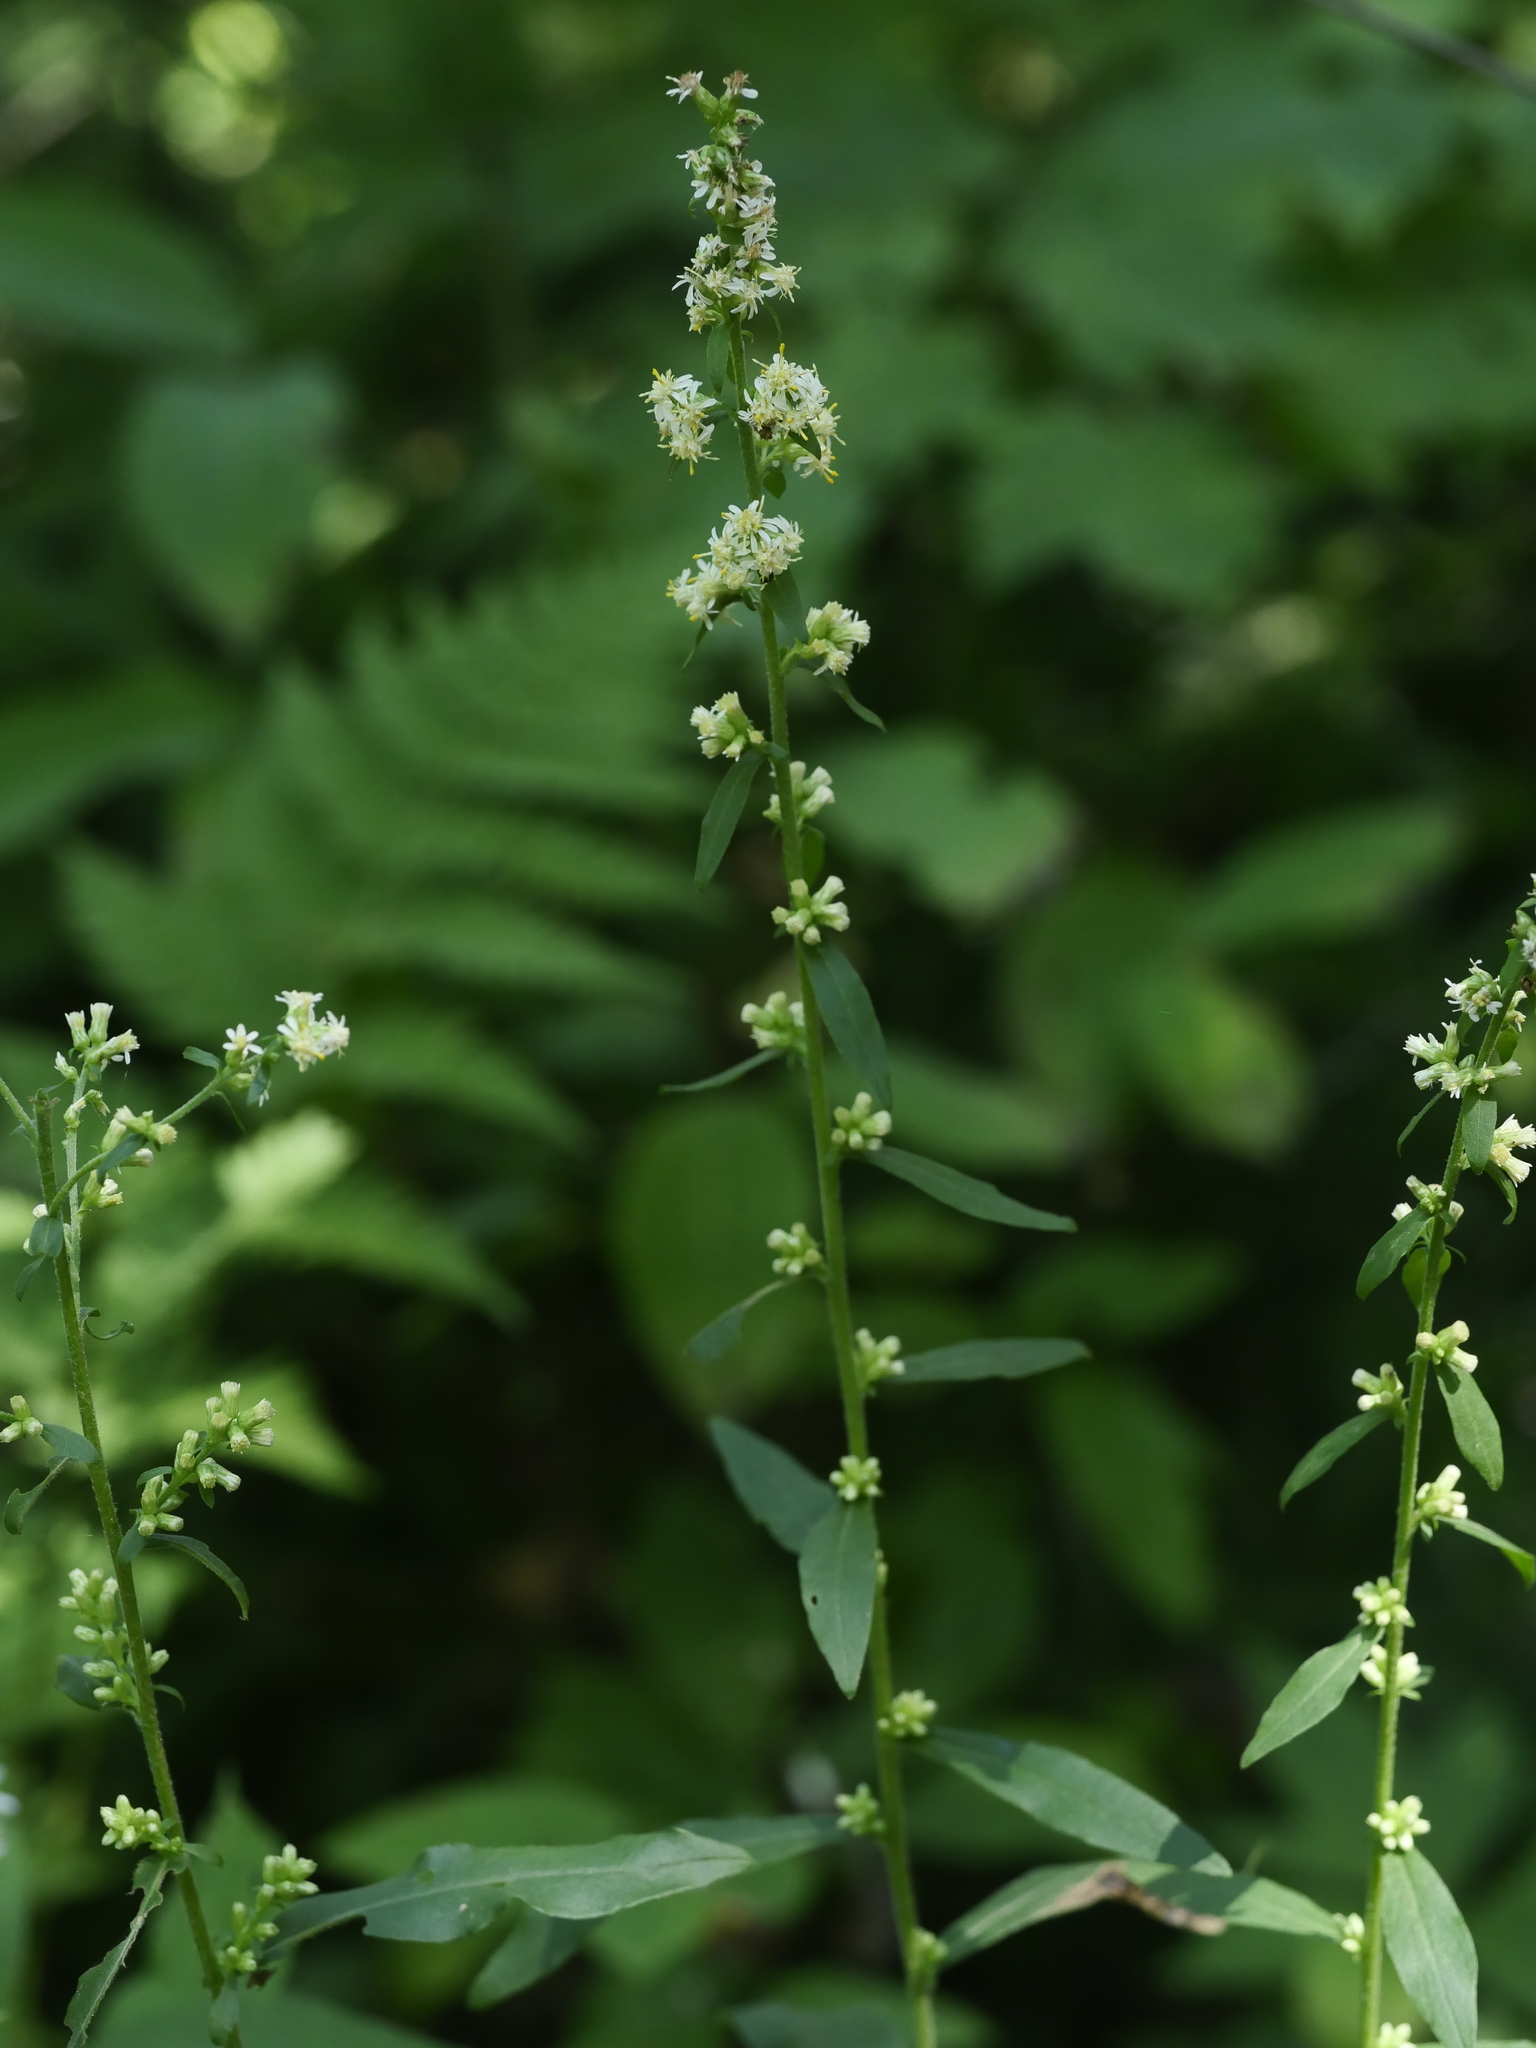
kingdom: Plantae
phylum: Tracheophyta
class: Magnoliopsida
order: Asterales
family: Asteraceae
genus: Solidago
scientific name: Solidago bicolor
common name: Silverrod
